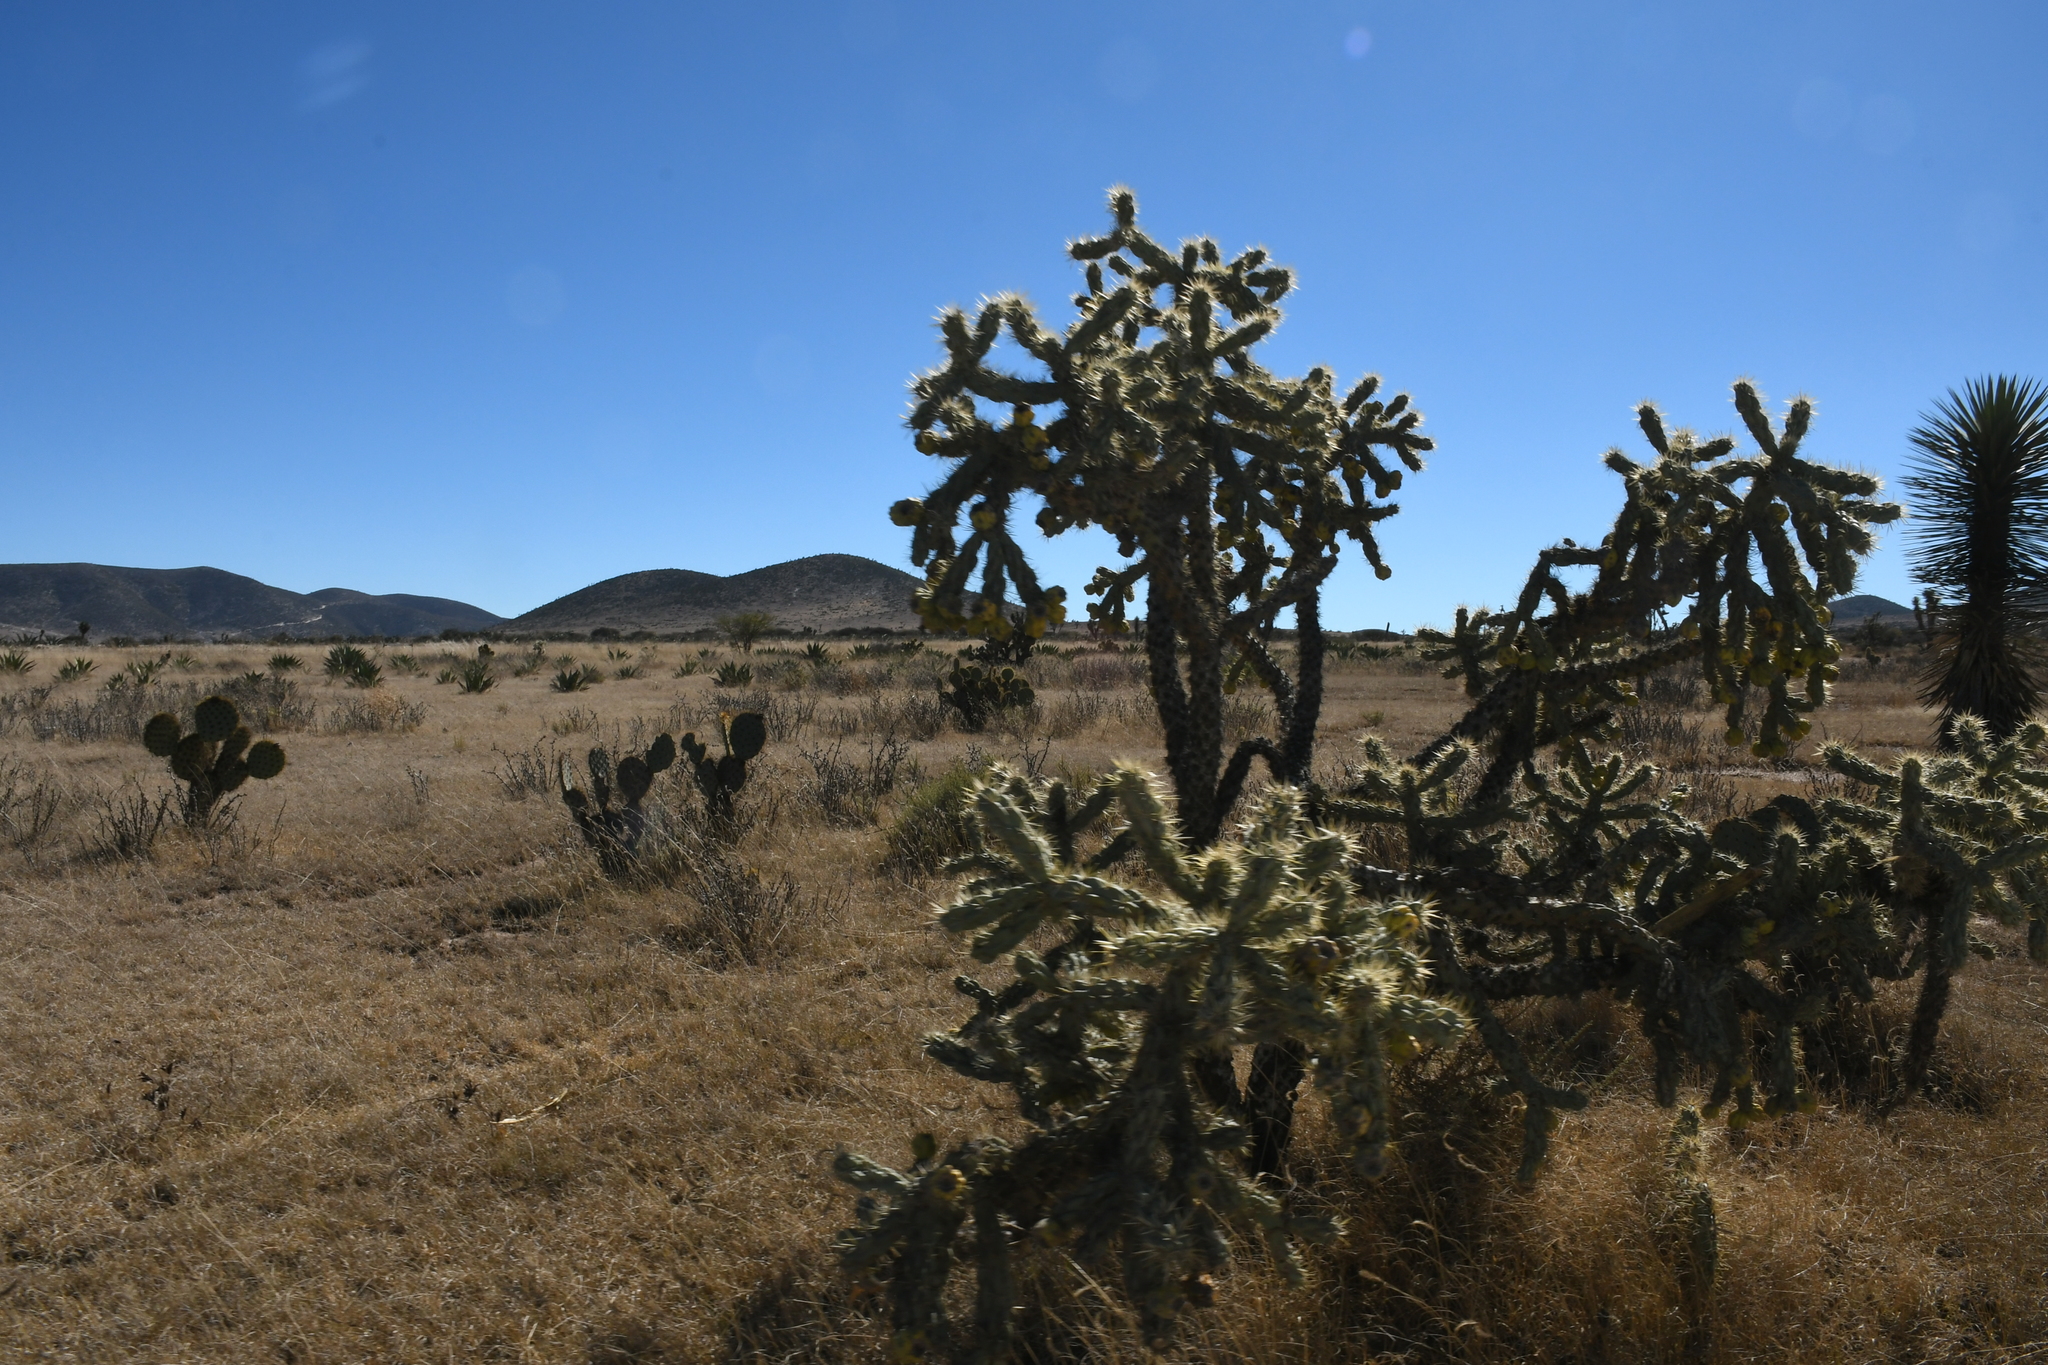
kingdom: Plantae
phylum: Tracheophyta
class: Magnoliopsida
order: Caryophyllales
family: Cactaceae
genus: Cylindropuntia
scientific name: Cylindropuntia imbricata
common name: Candelabrum cactus
